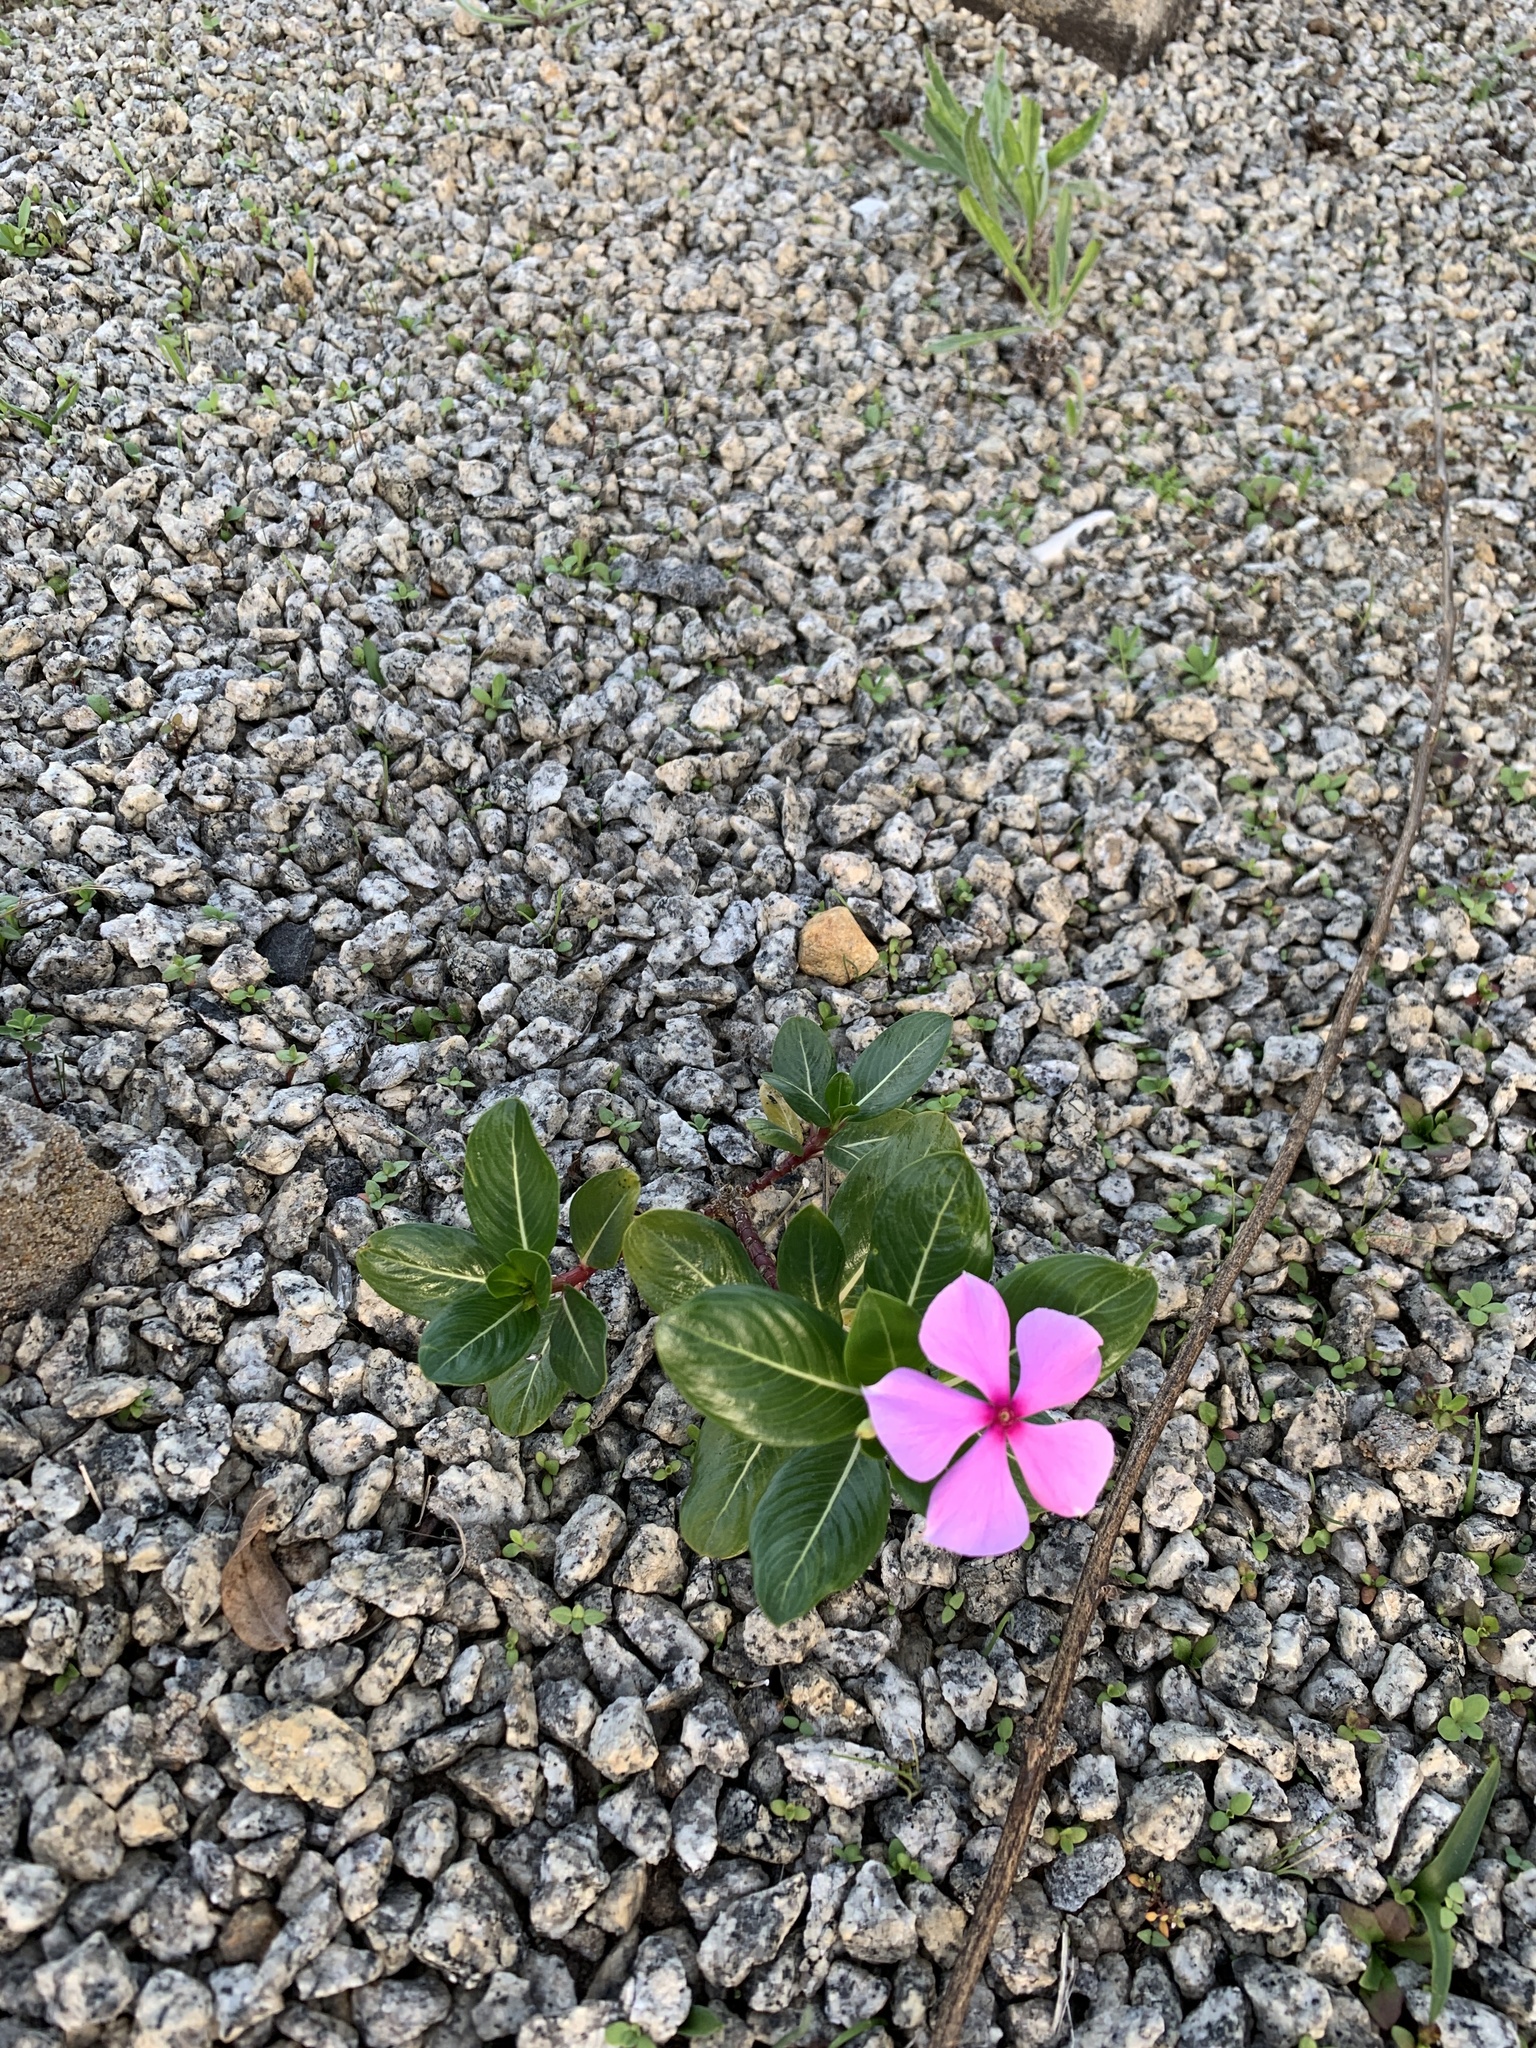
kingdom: Plantae
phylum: Tracheophyta
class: Magnoliopsida
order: Gentianales
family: Apocynaceae
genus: Catharanthus
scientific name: Catharanthus roseus
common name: Madagascar periwinkle
